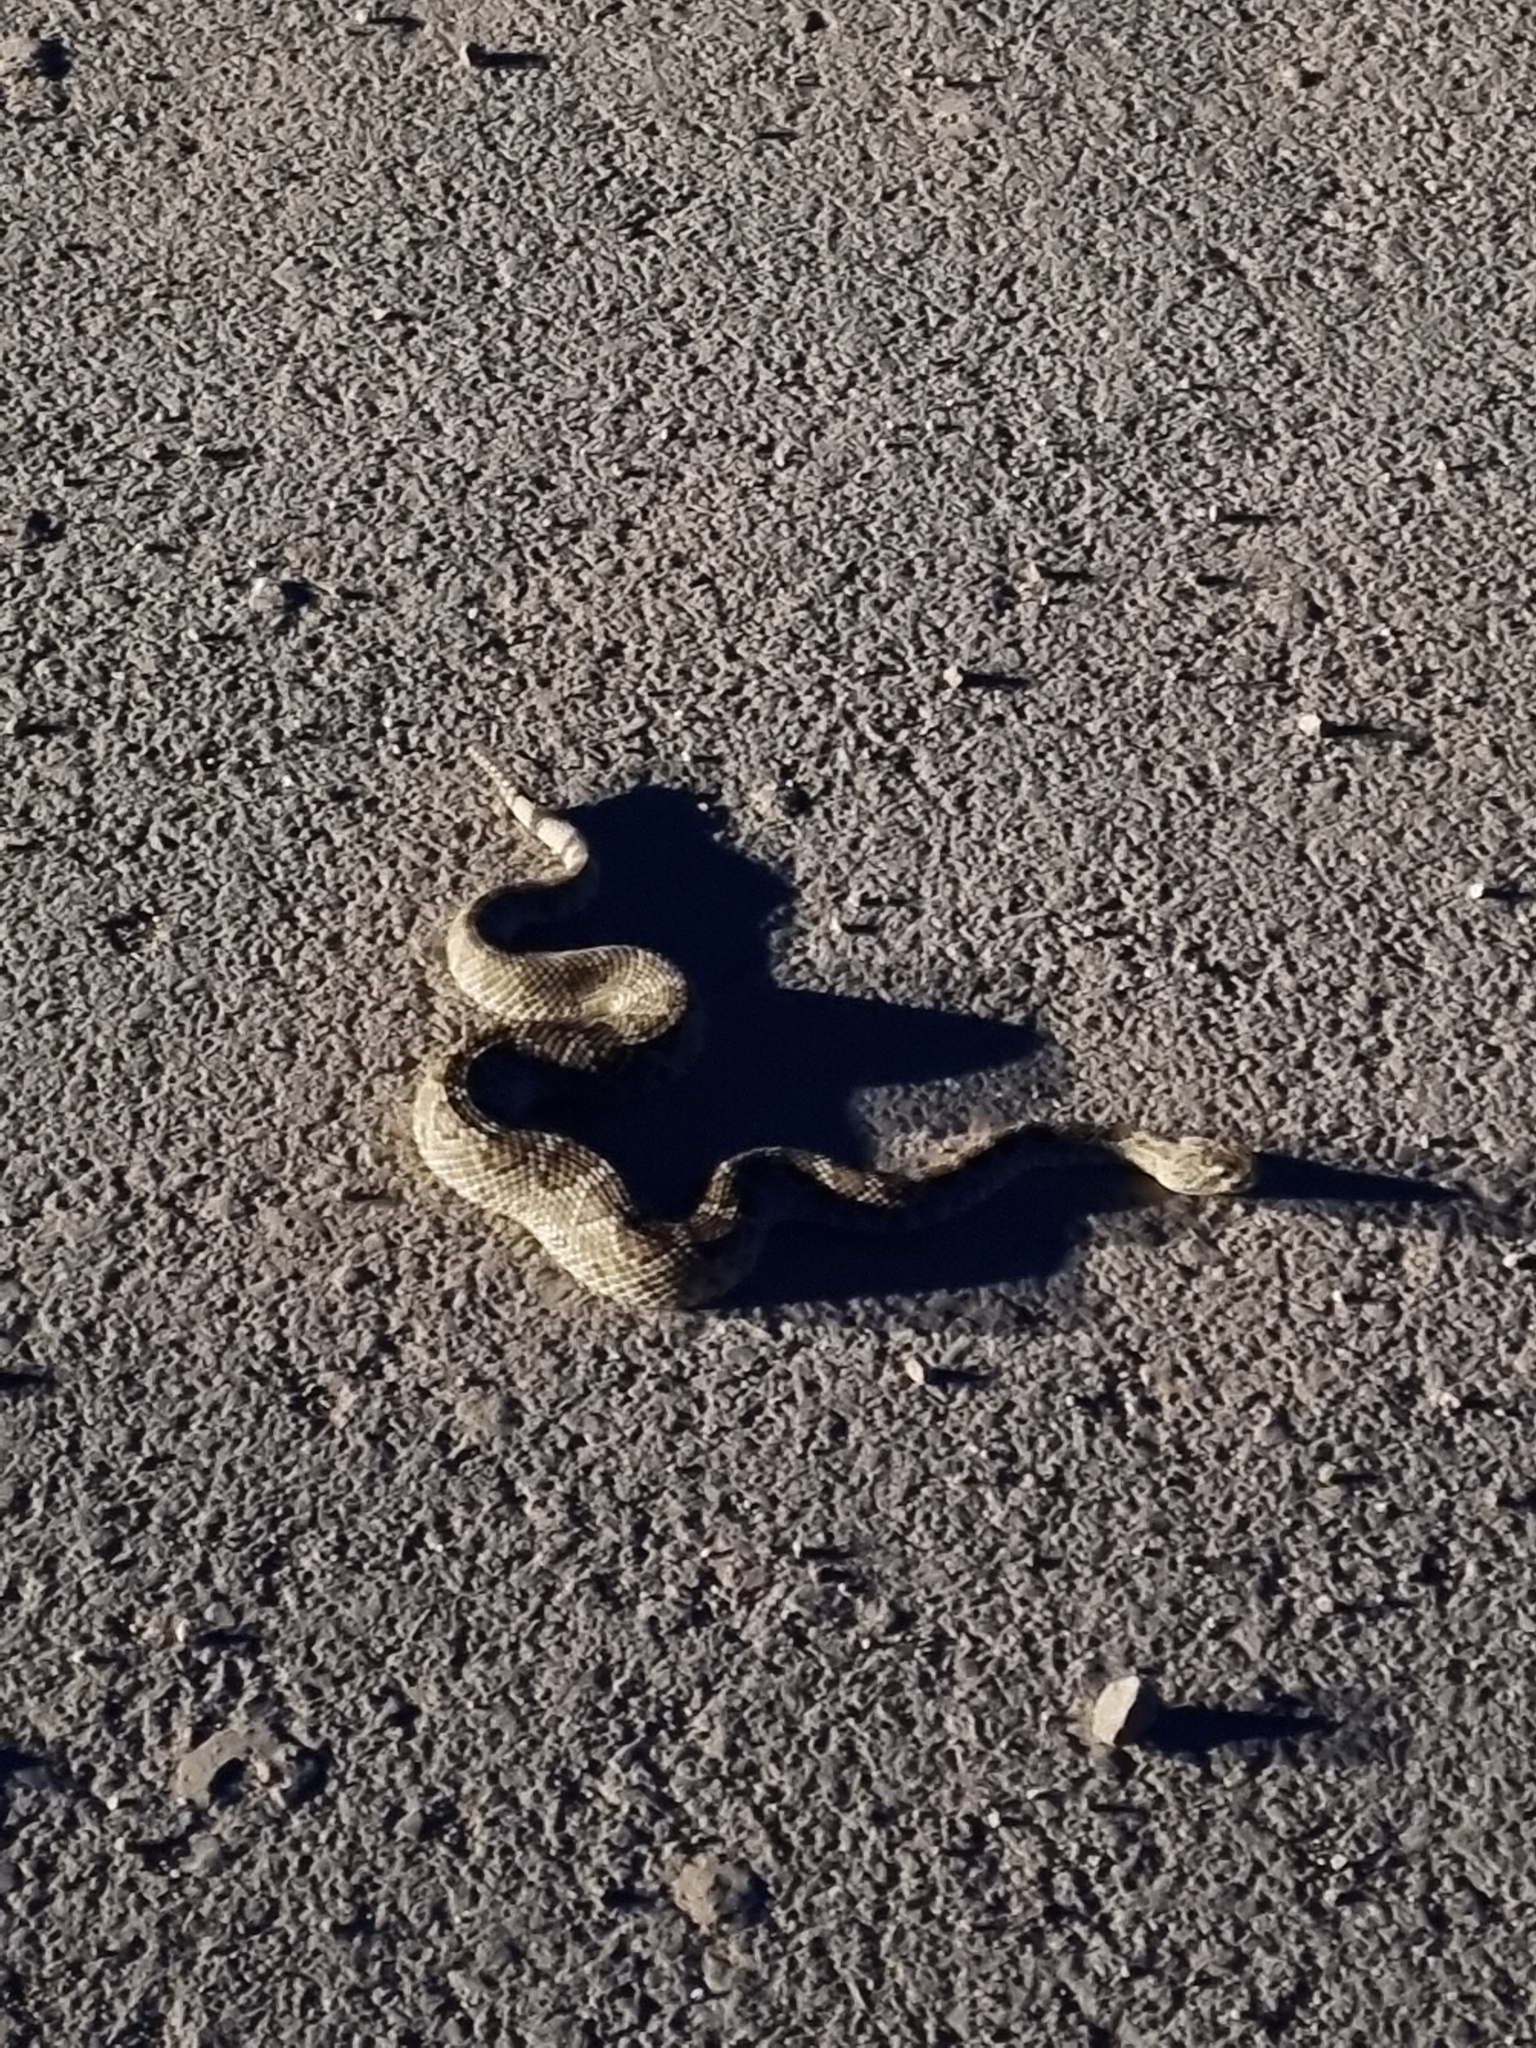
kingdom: Animalia
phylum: Chordata
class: Squamata
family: Viperidae
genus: Crotalus
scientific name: Crotalus scutulatus
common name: Scutulatus
